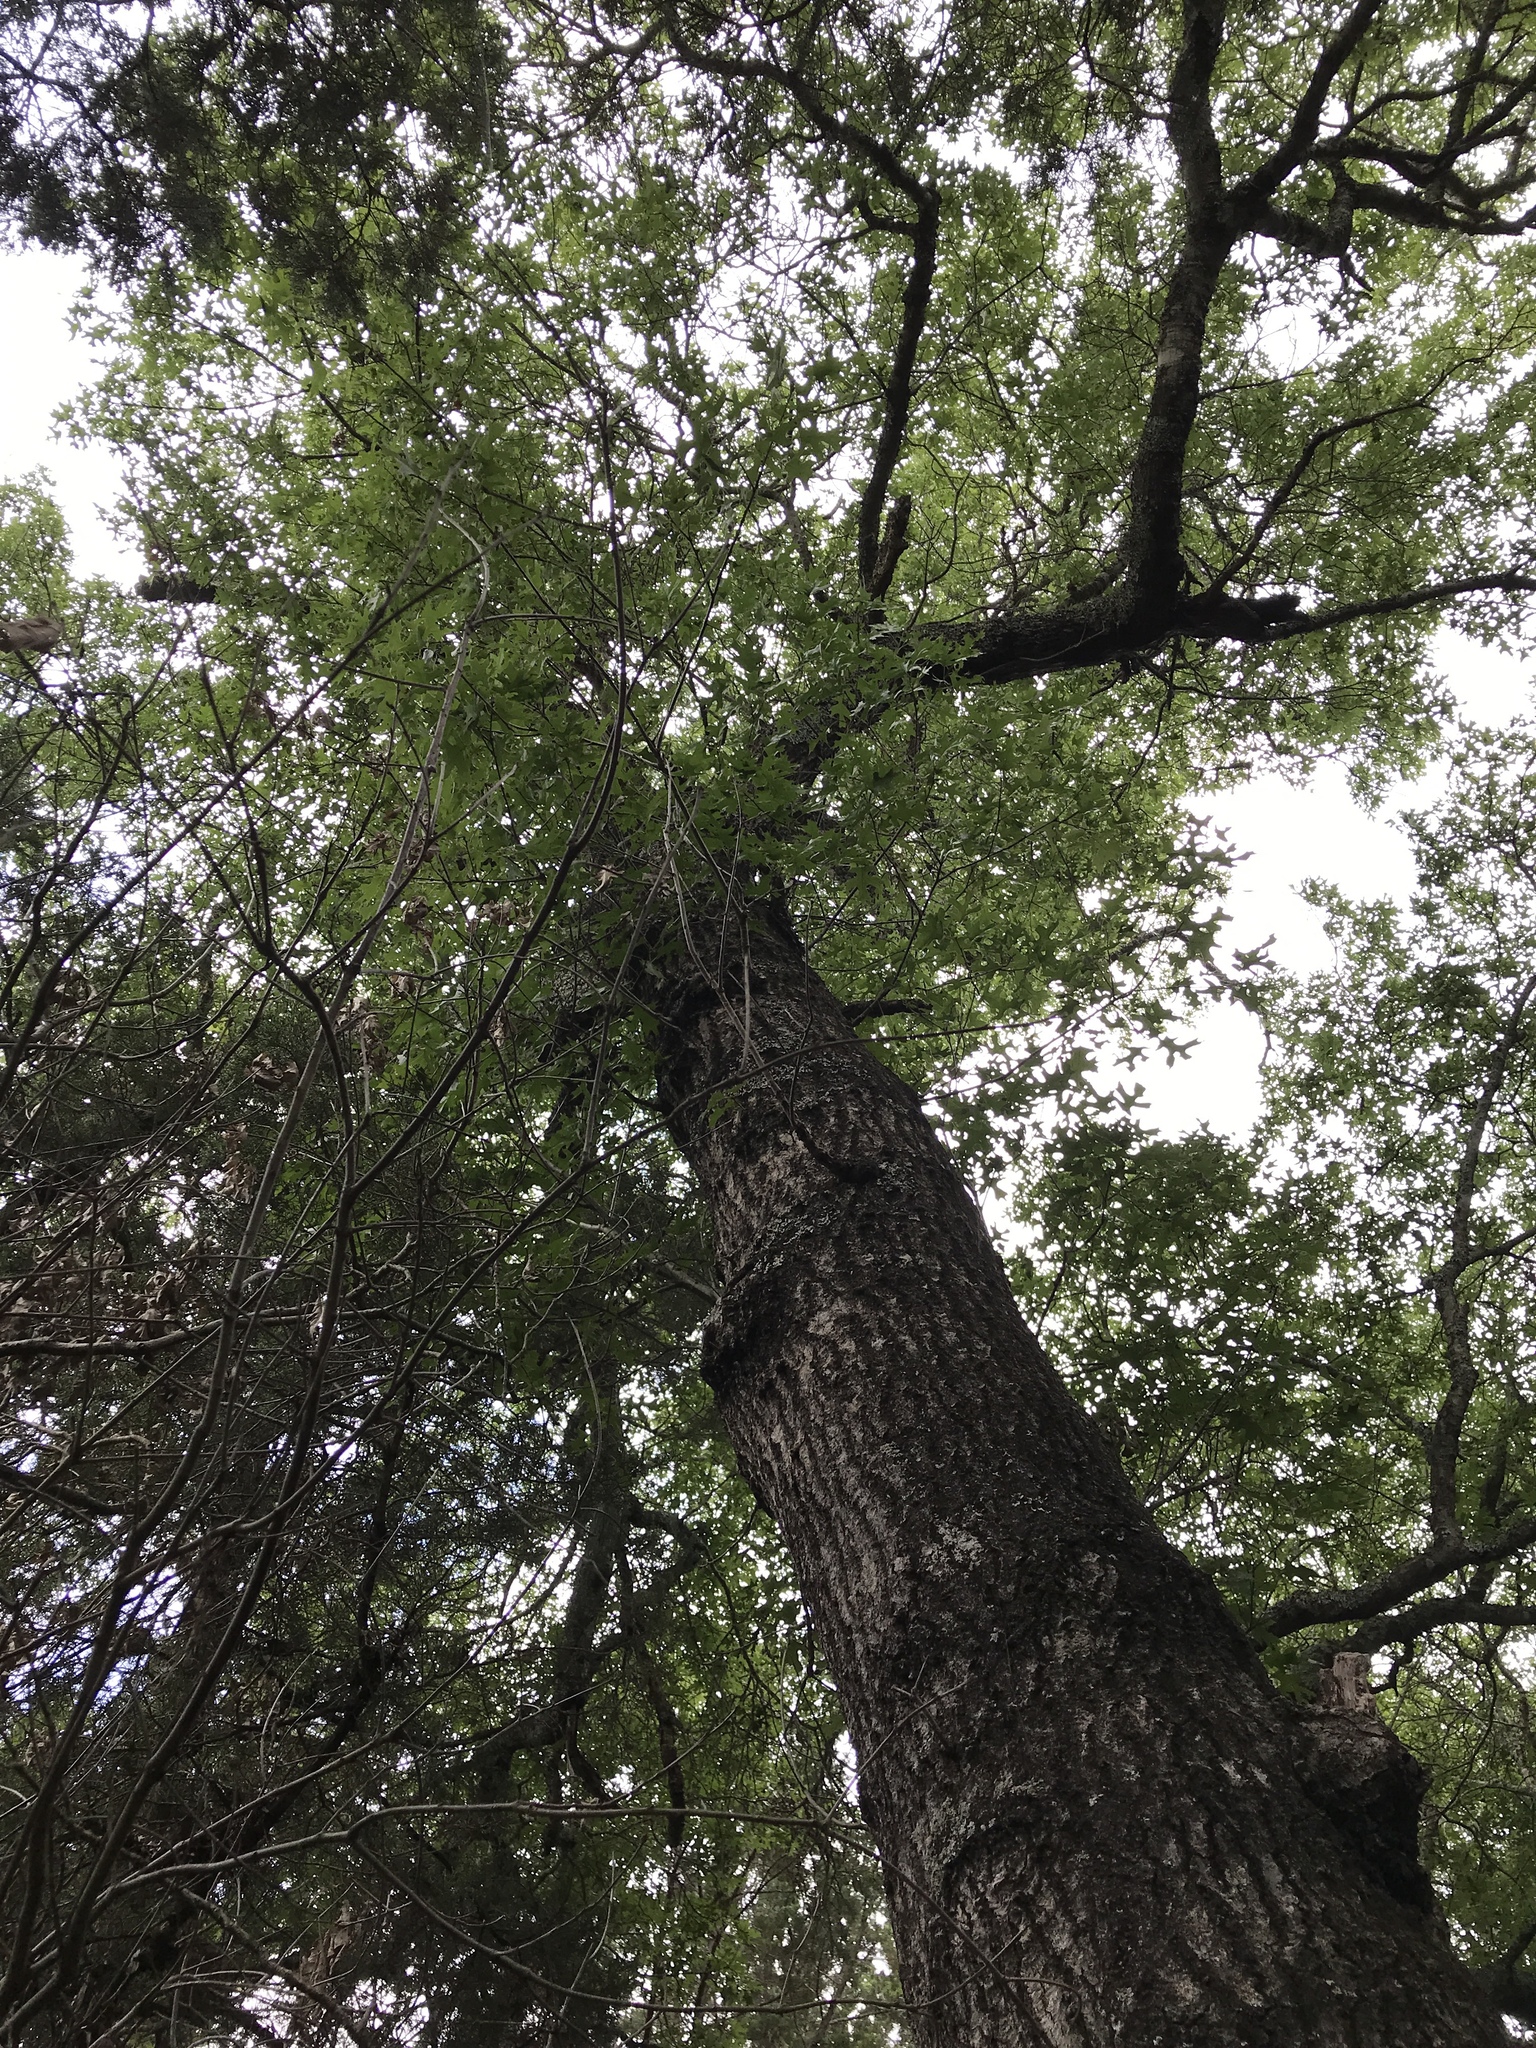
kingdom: Plantae
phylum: Tracheophyta
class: Magnoliopsida
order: Fagales
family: Fagaceae
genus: Quercus
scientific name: Quercus buckleyi
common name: Buckley oak
